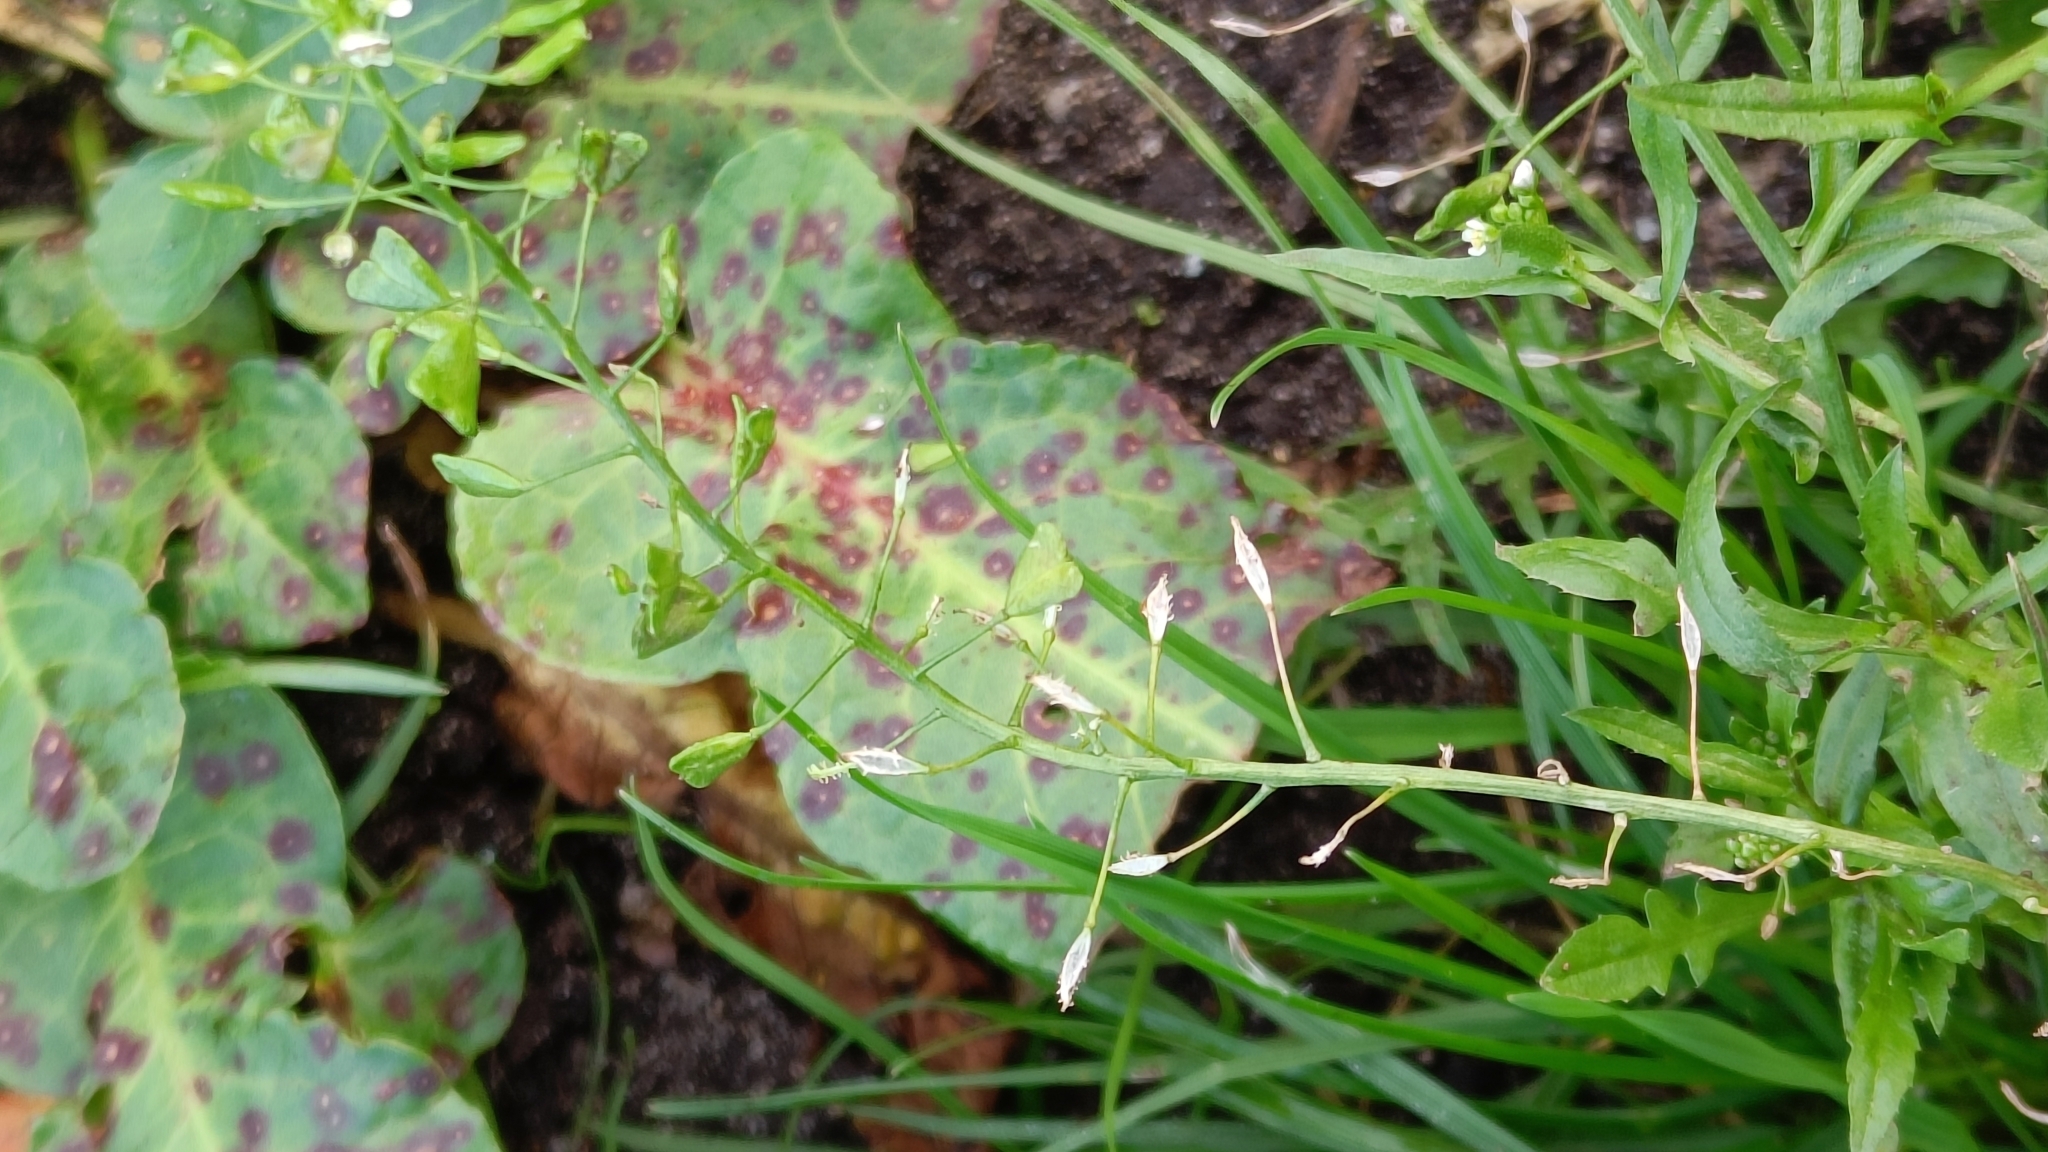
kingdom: Plantae
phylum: Tracheophyta
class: Magnoliopsida
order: Brassicales
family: Brassicaceae
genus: Capsella
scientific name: Capsella bursa-pastoris
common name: Shepherd's purse
